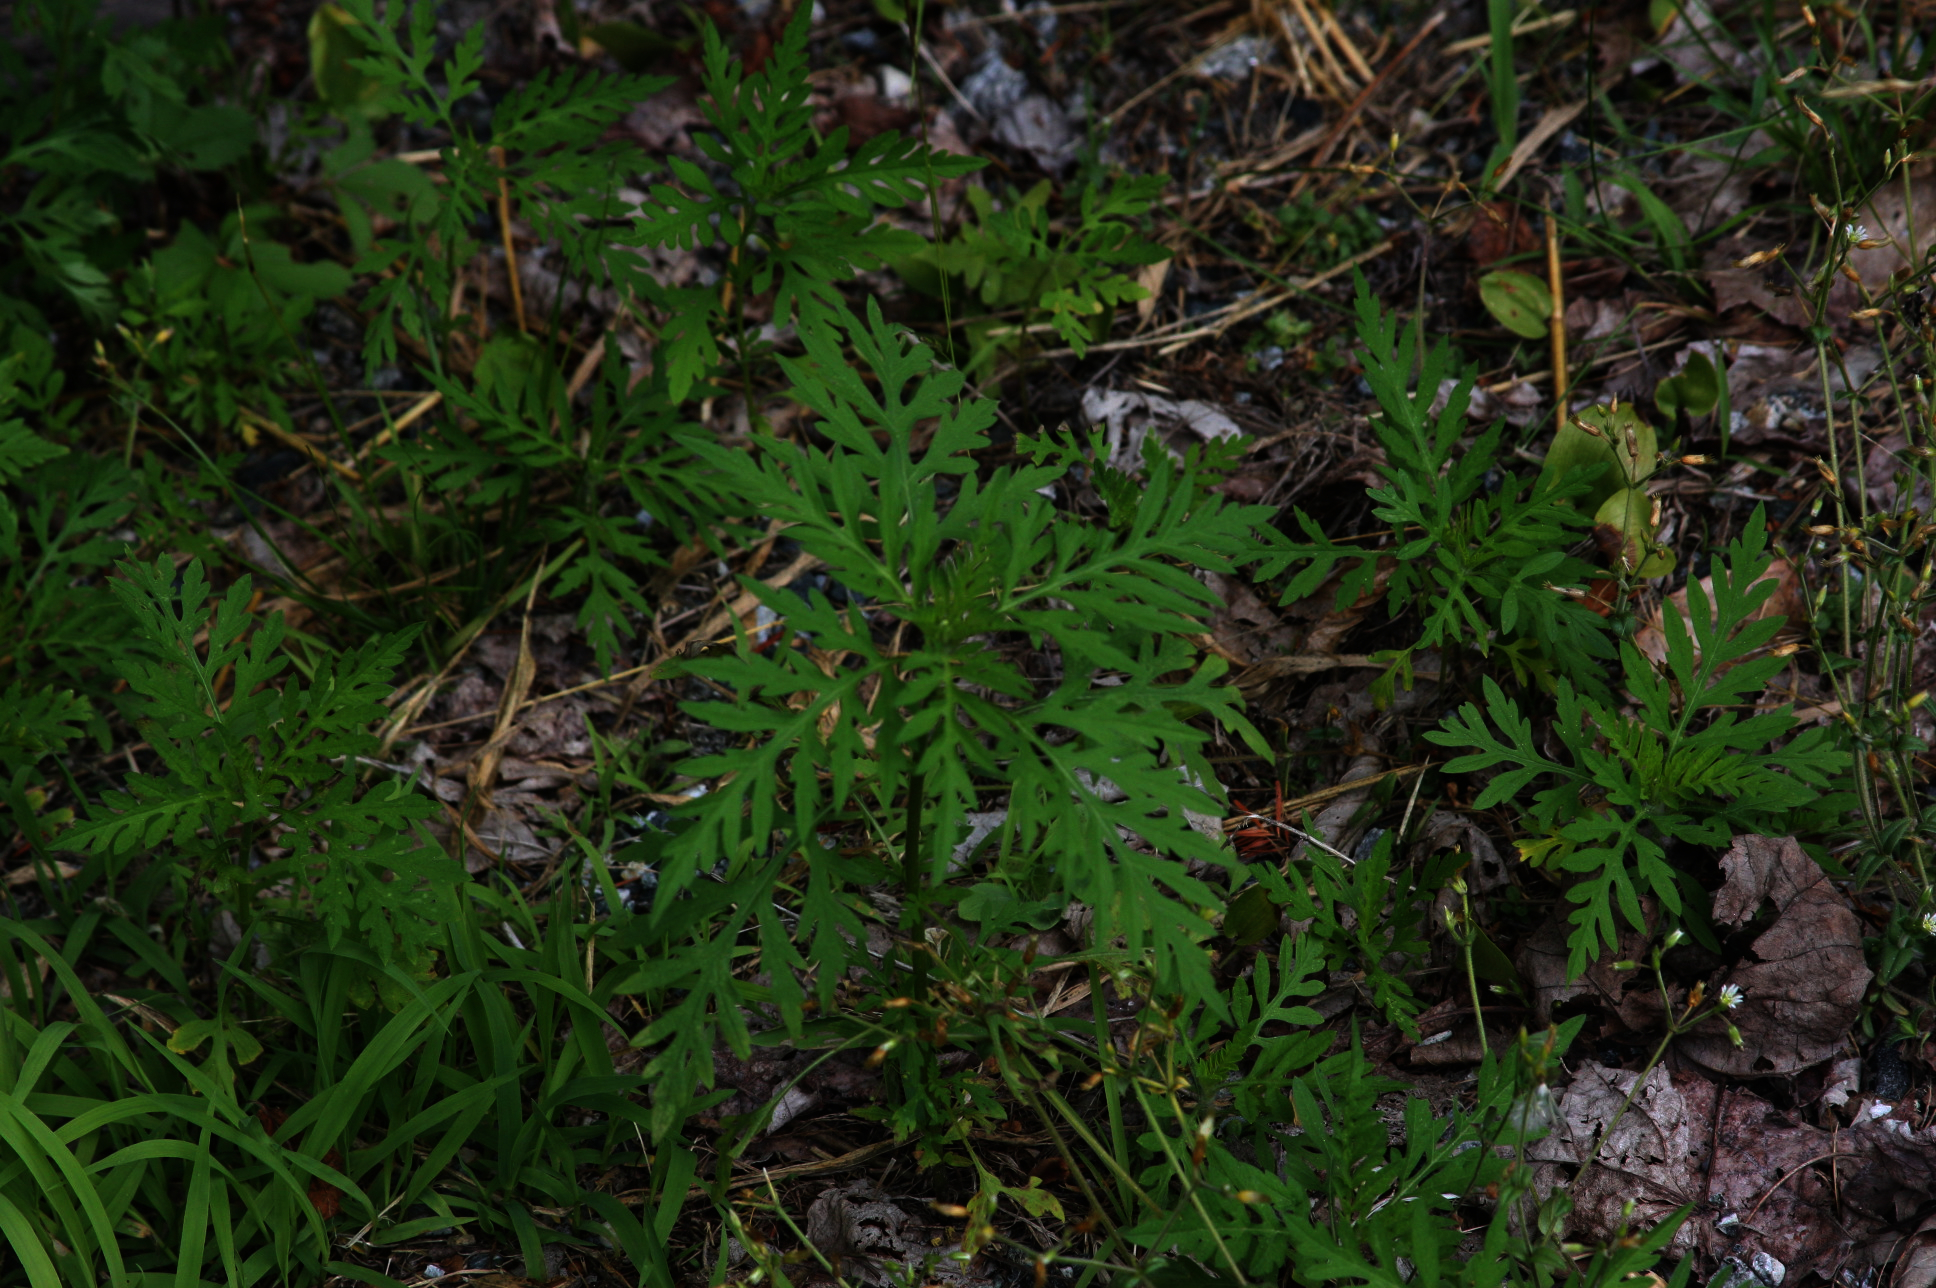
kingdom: Plantae
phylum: Tracheophyta
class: Magnoliopsida
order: Asterales
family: Asteraceae
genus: Ambrosia
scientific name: Ambrosia artemisiifolia
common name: Annual ragweed
